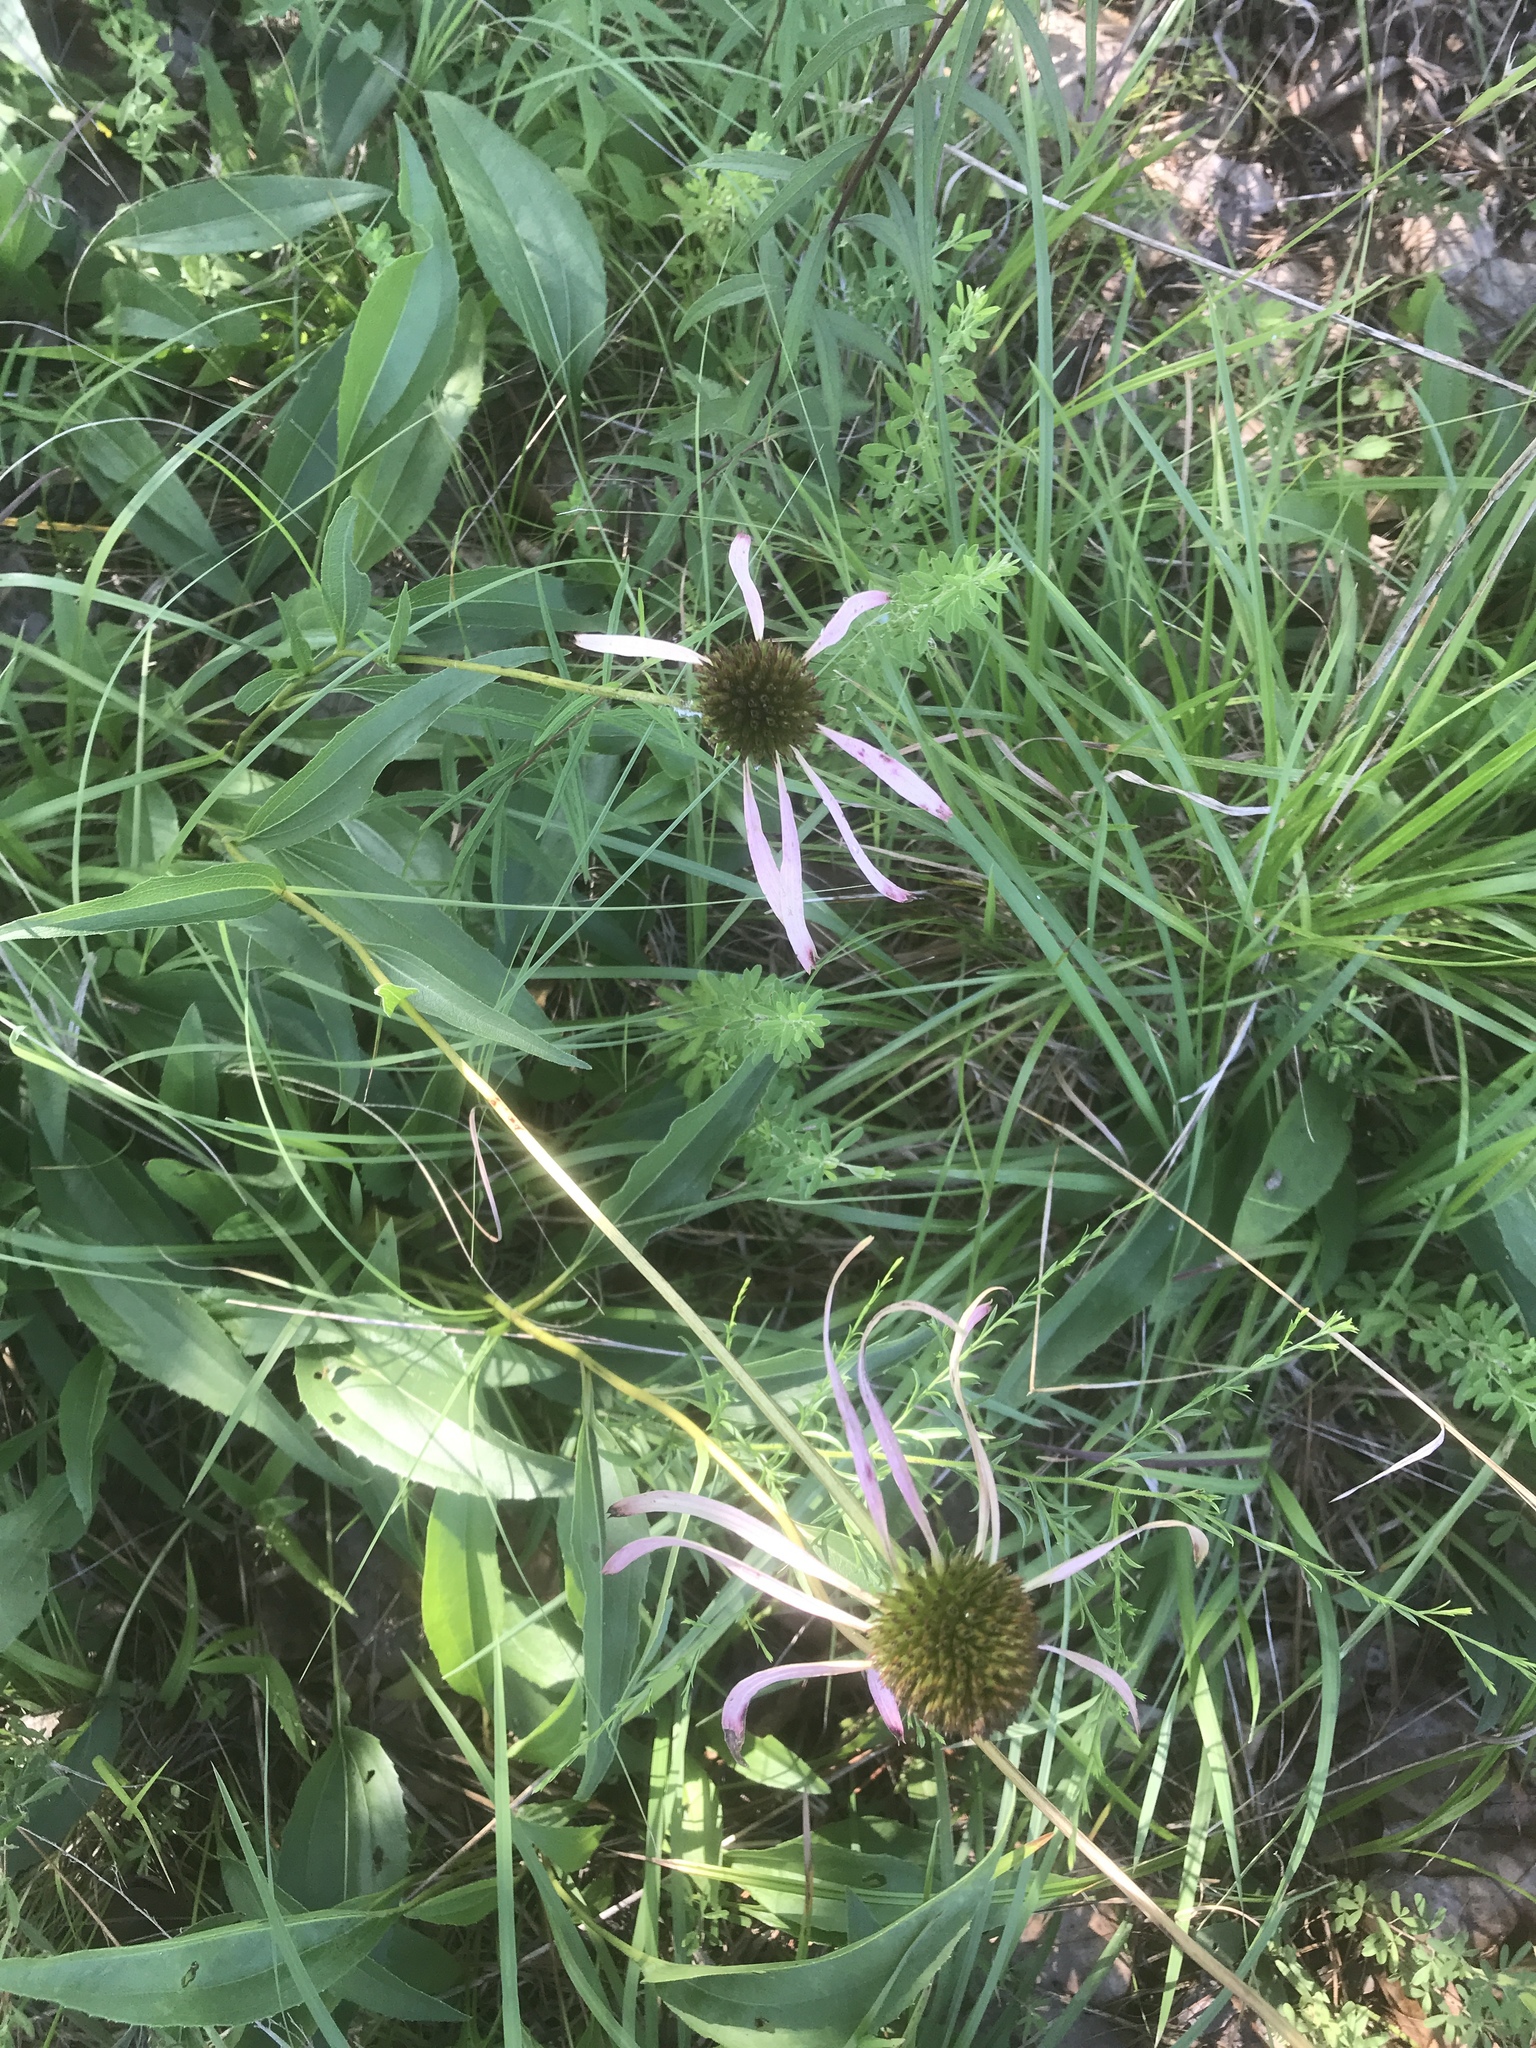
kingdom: Plantae
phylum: Tracheophyta
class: Magnoliopsida
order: Asterales
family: Asteraceae
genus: Echinacea
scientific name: Echinacea laevigata
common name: Smooth coneflower
